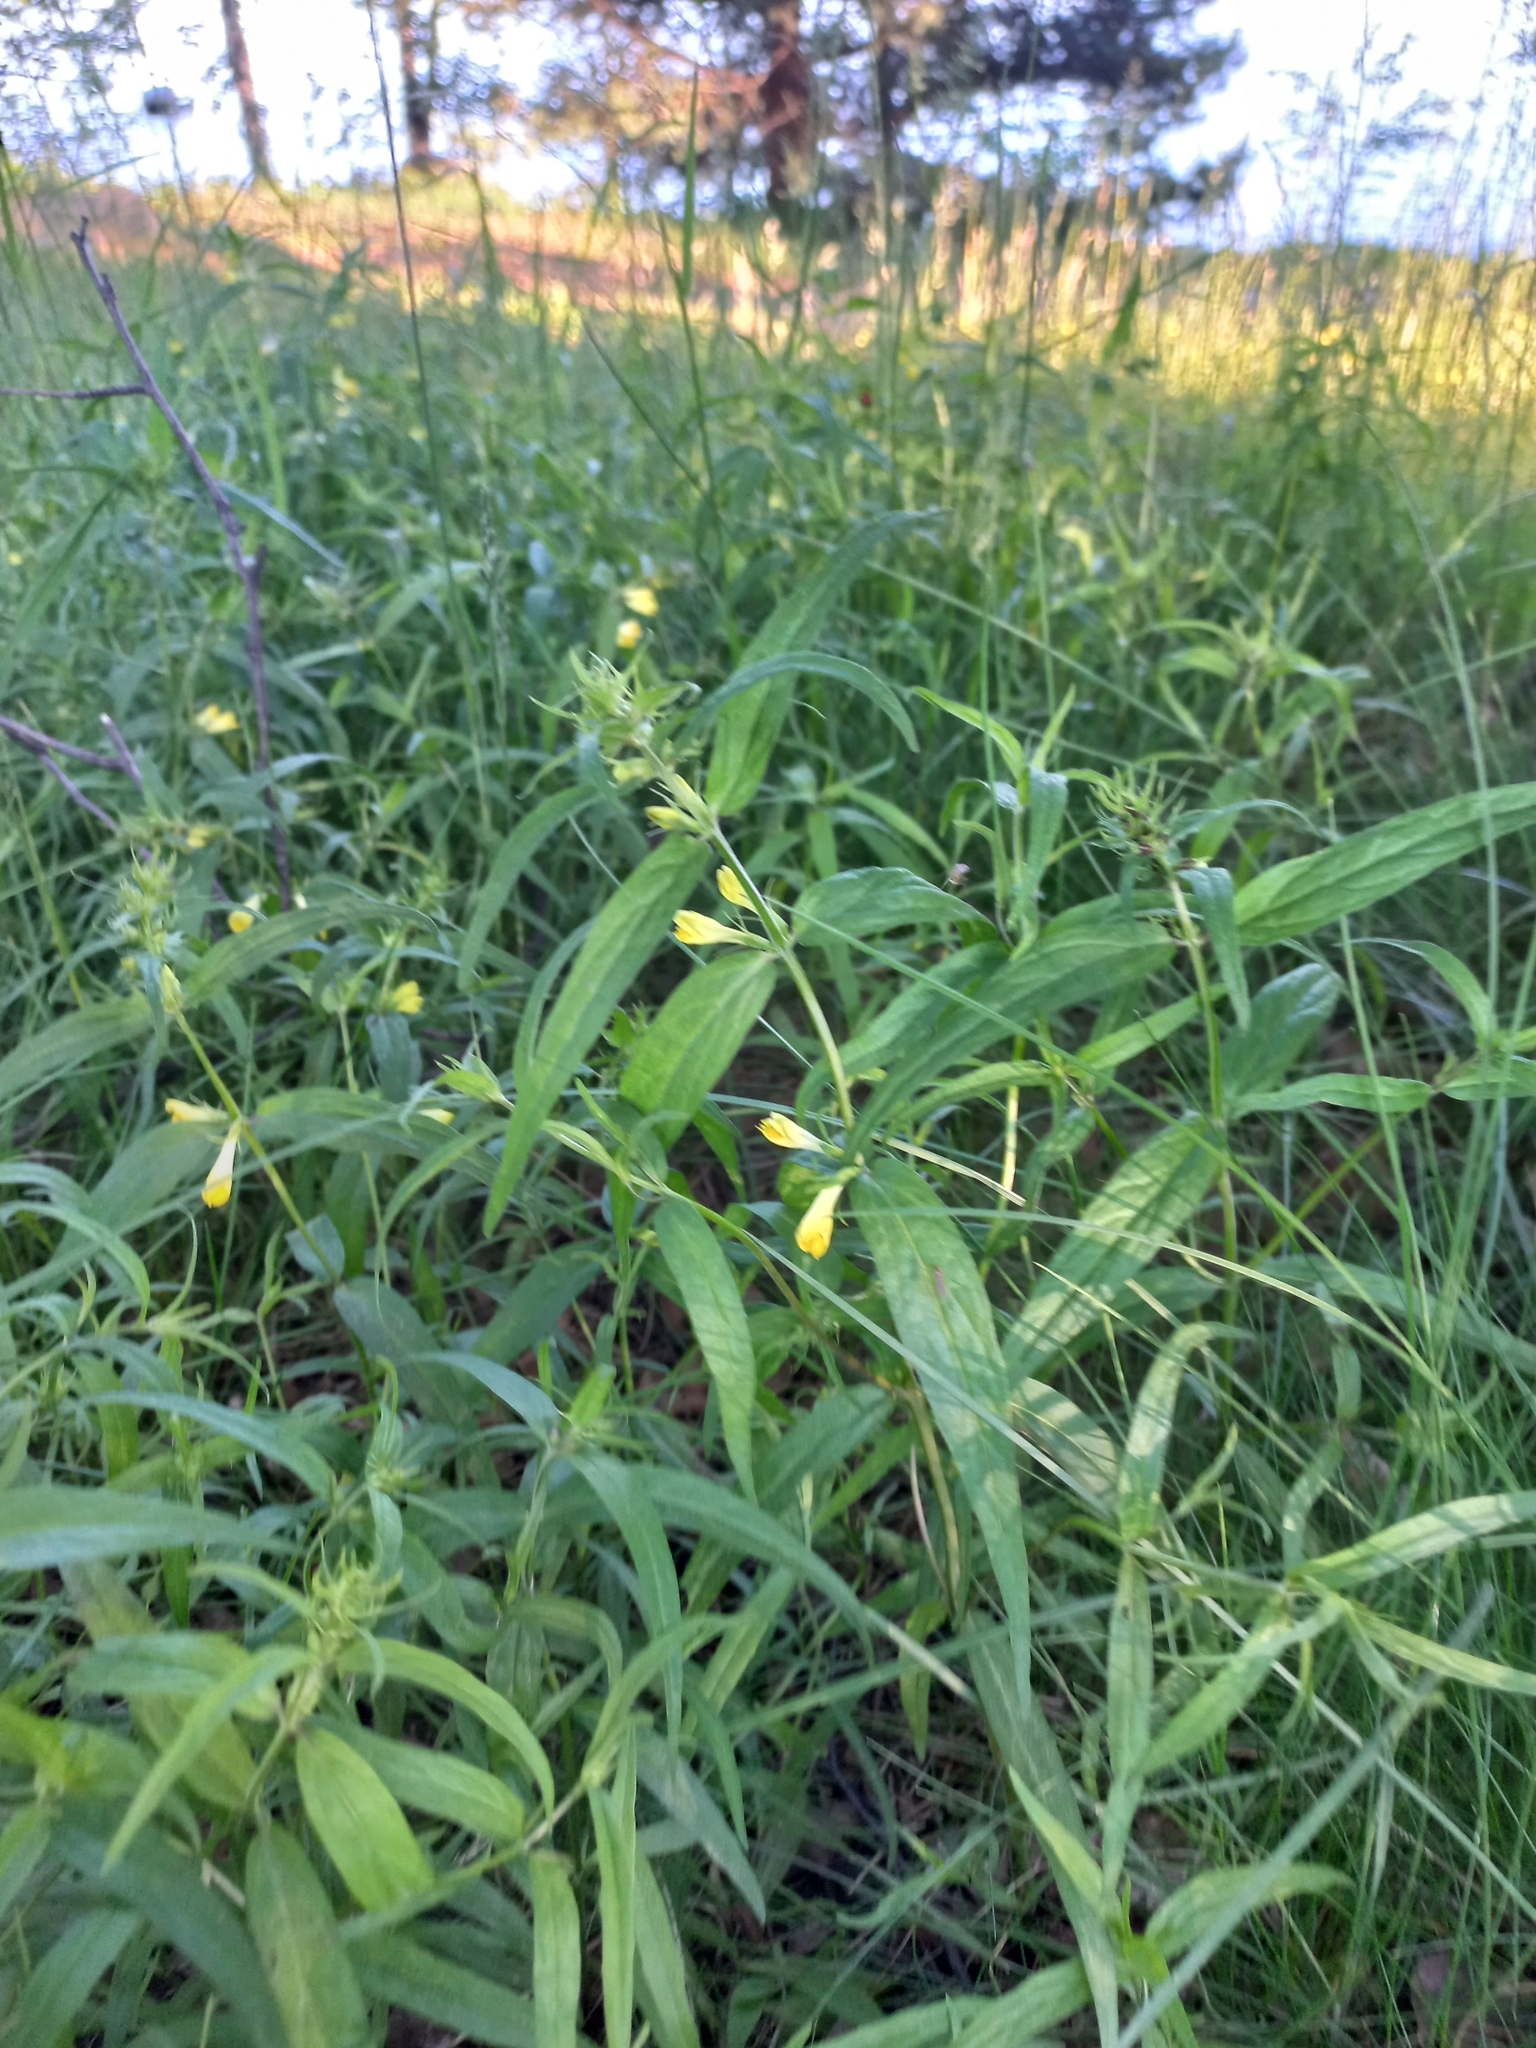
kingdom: Plantae
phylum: Tracheophyta
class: Magnoliopsida
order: Lamiales
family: Orobanchaceae
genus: Melampyrum
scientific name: Melampyrum pratense
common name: Common cow-wheat
